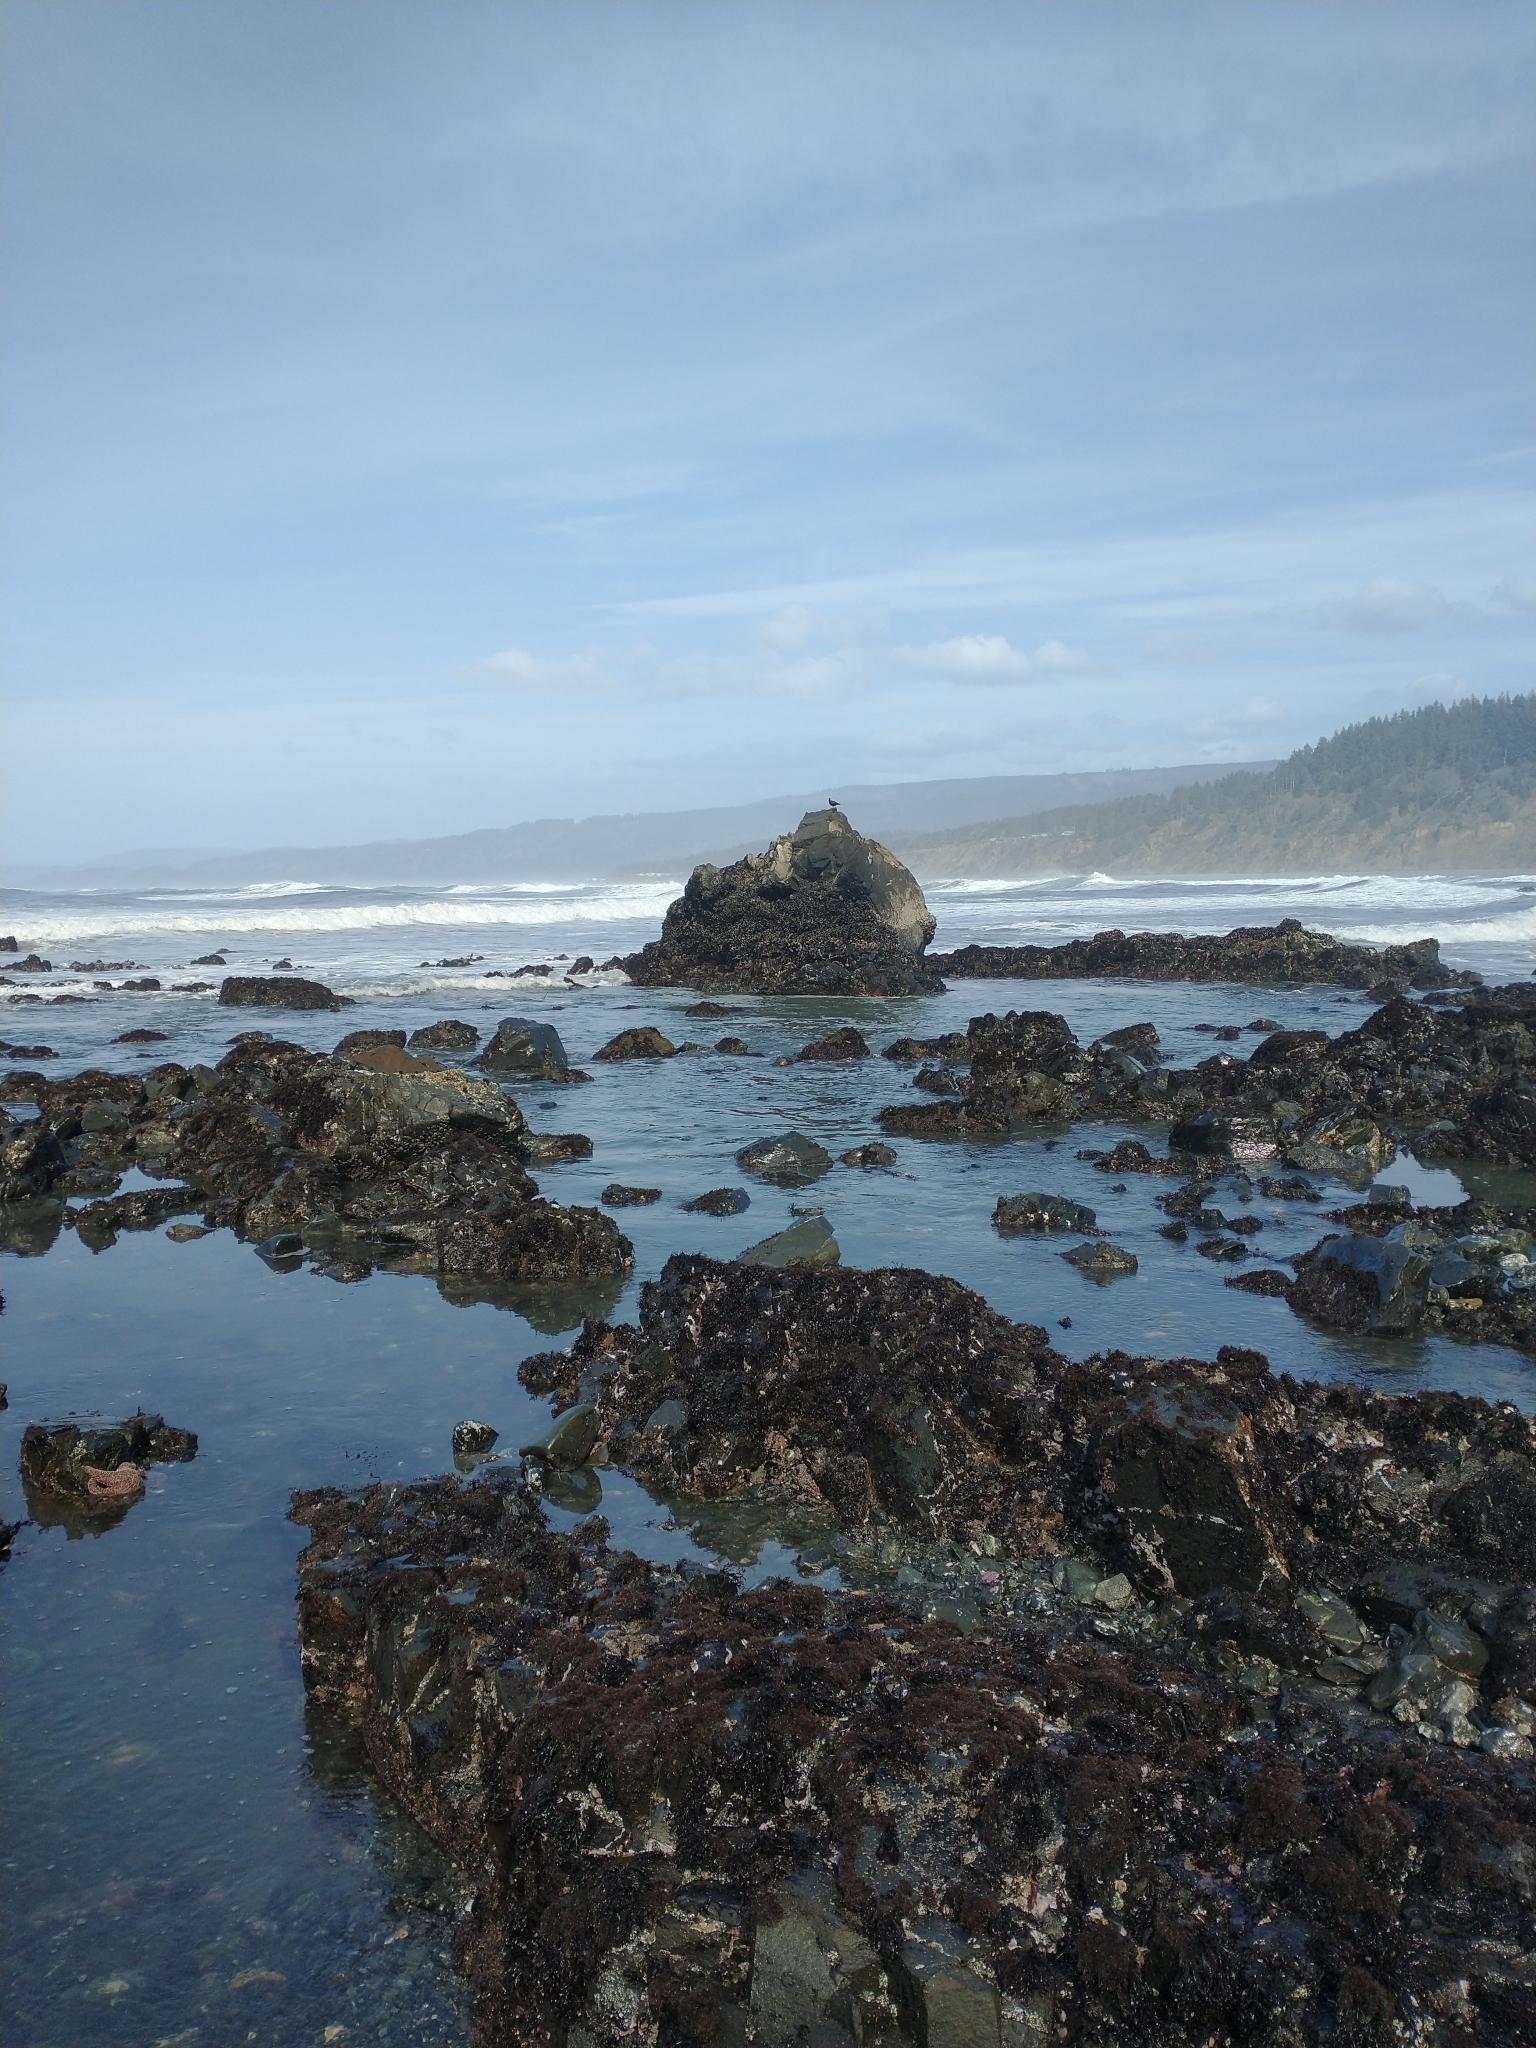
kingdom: Animalia
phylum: Chordata
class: Aves
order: Charadriiformes
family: Haematopodidae
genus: Haematopus
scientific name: Haematopus bachmani
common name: Black oystercatcher
